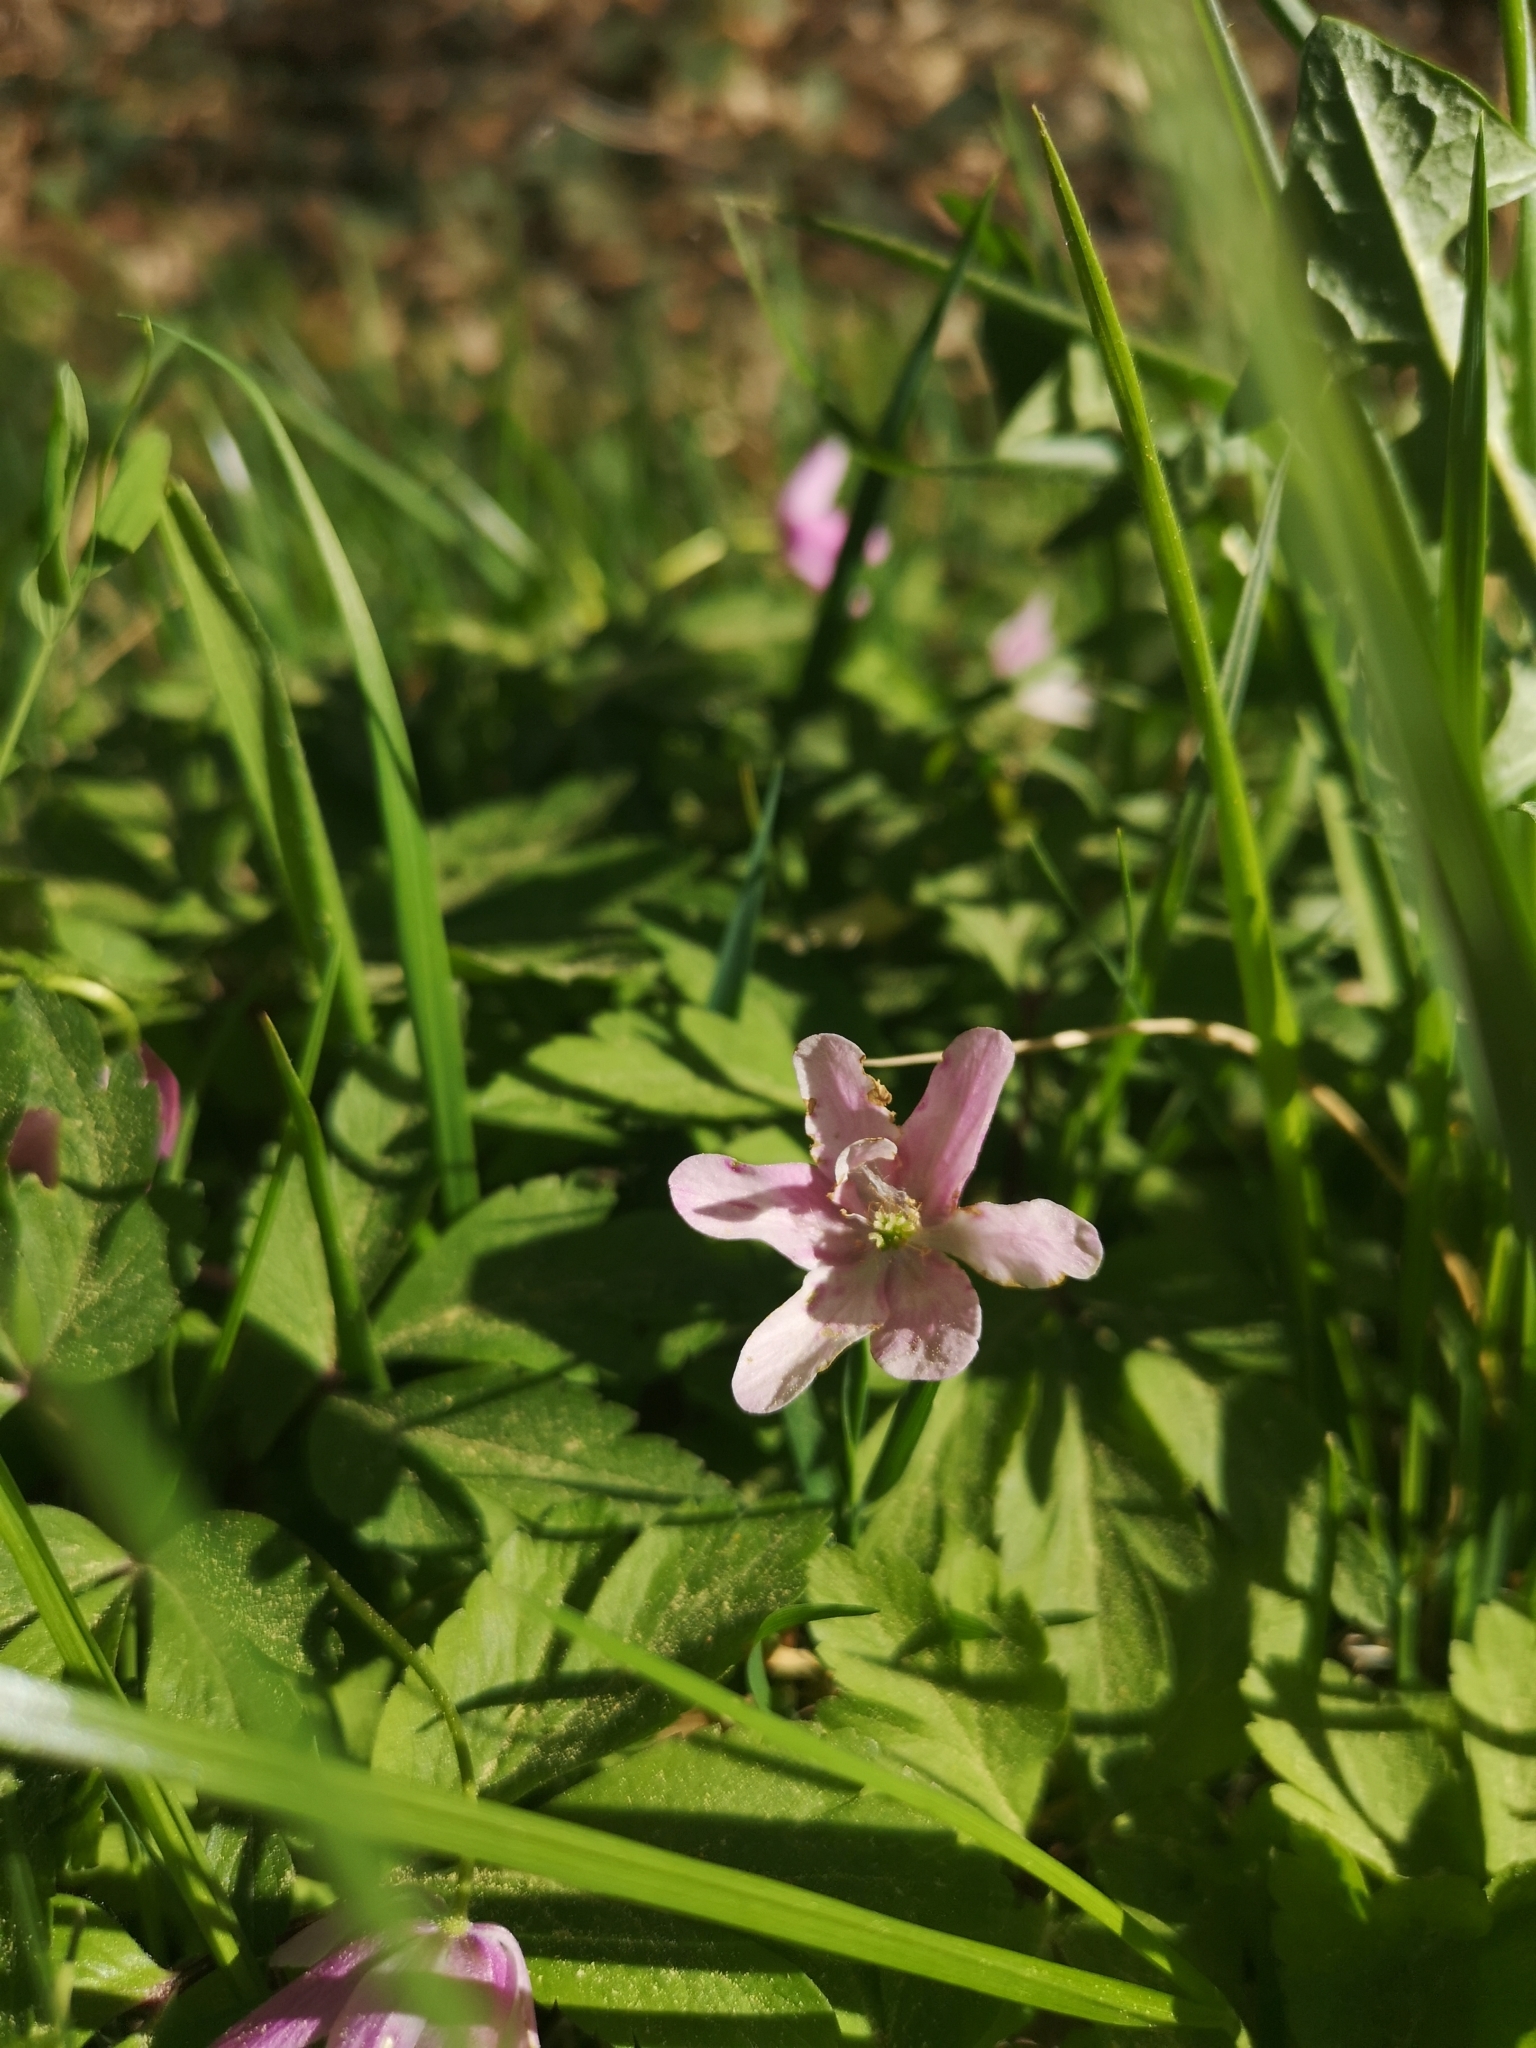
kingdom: Plantae
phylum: Tracheophyta
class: Magnoliopsida
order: Ranunculales
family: Ranunculaceae
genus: Anemone
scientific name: Anemone nemorosa
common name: Wood anemone
